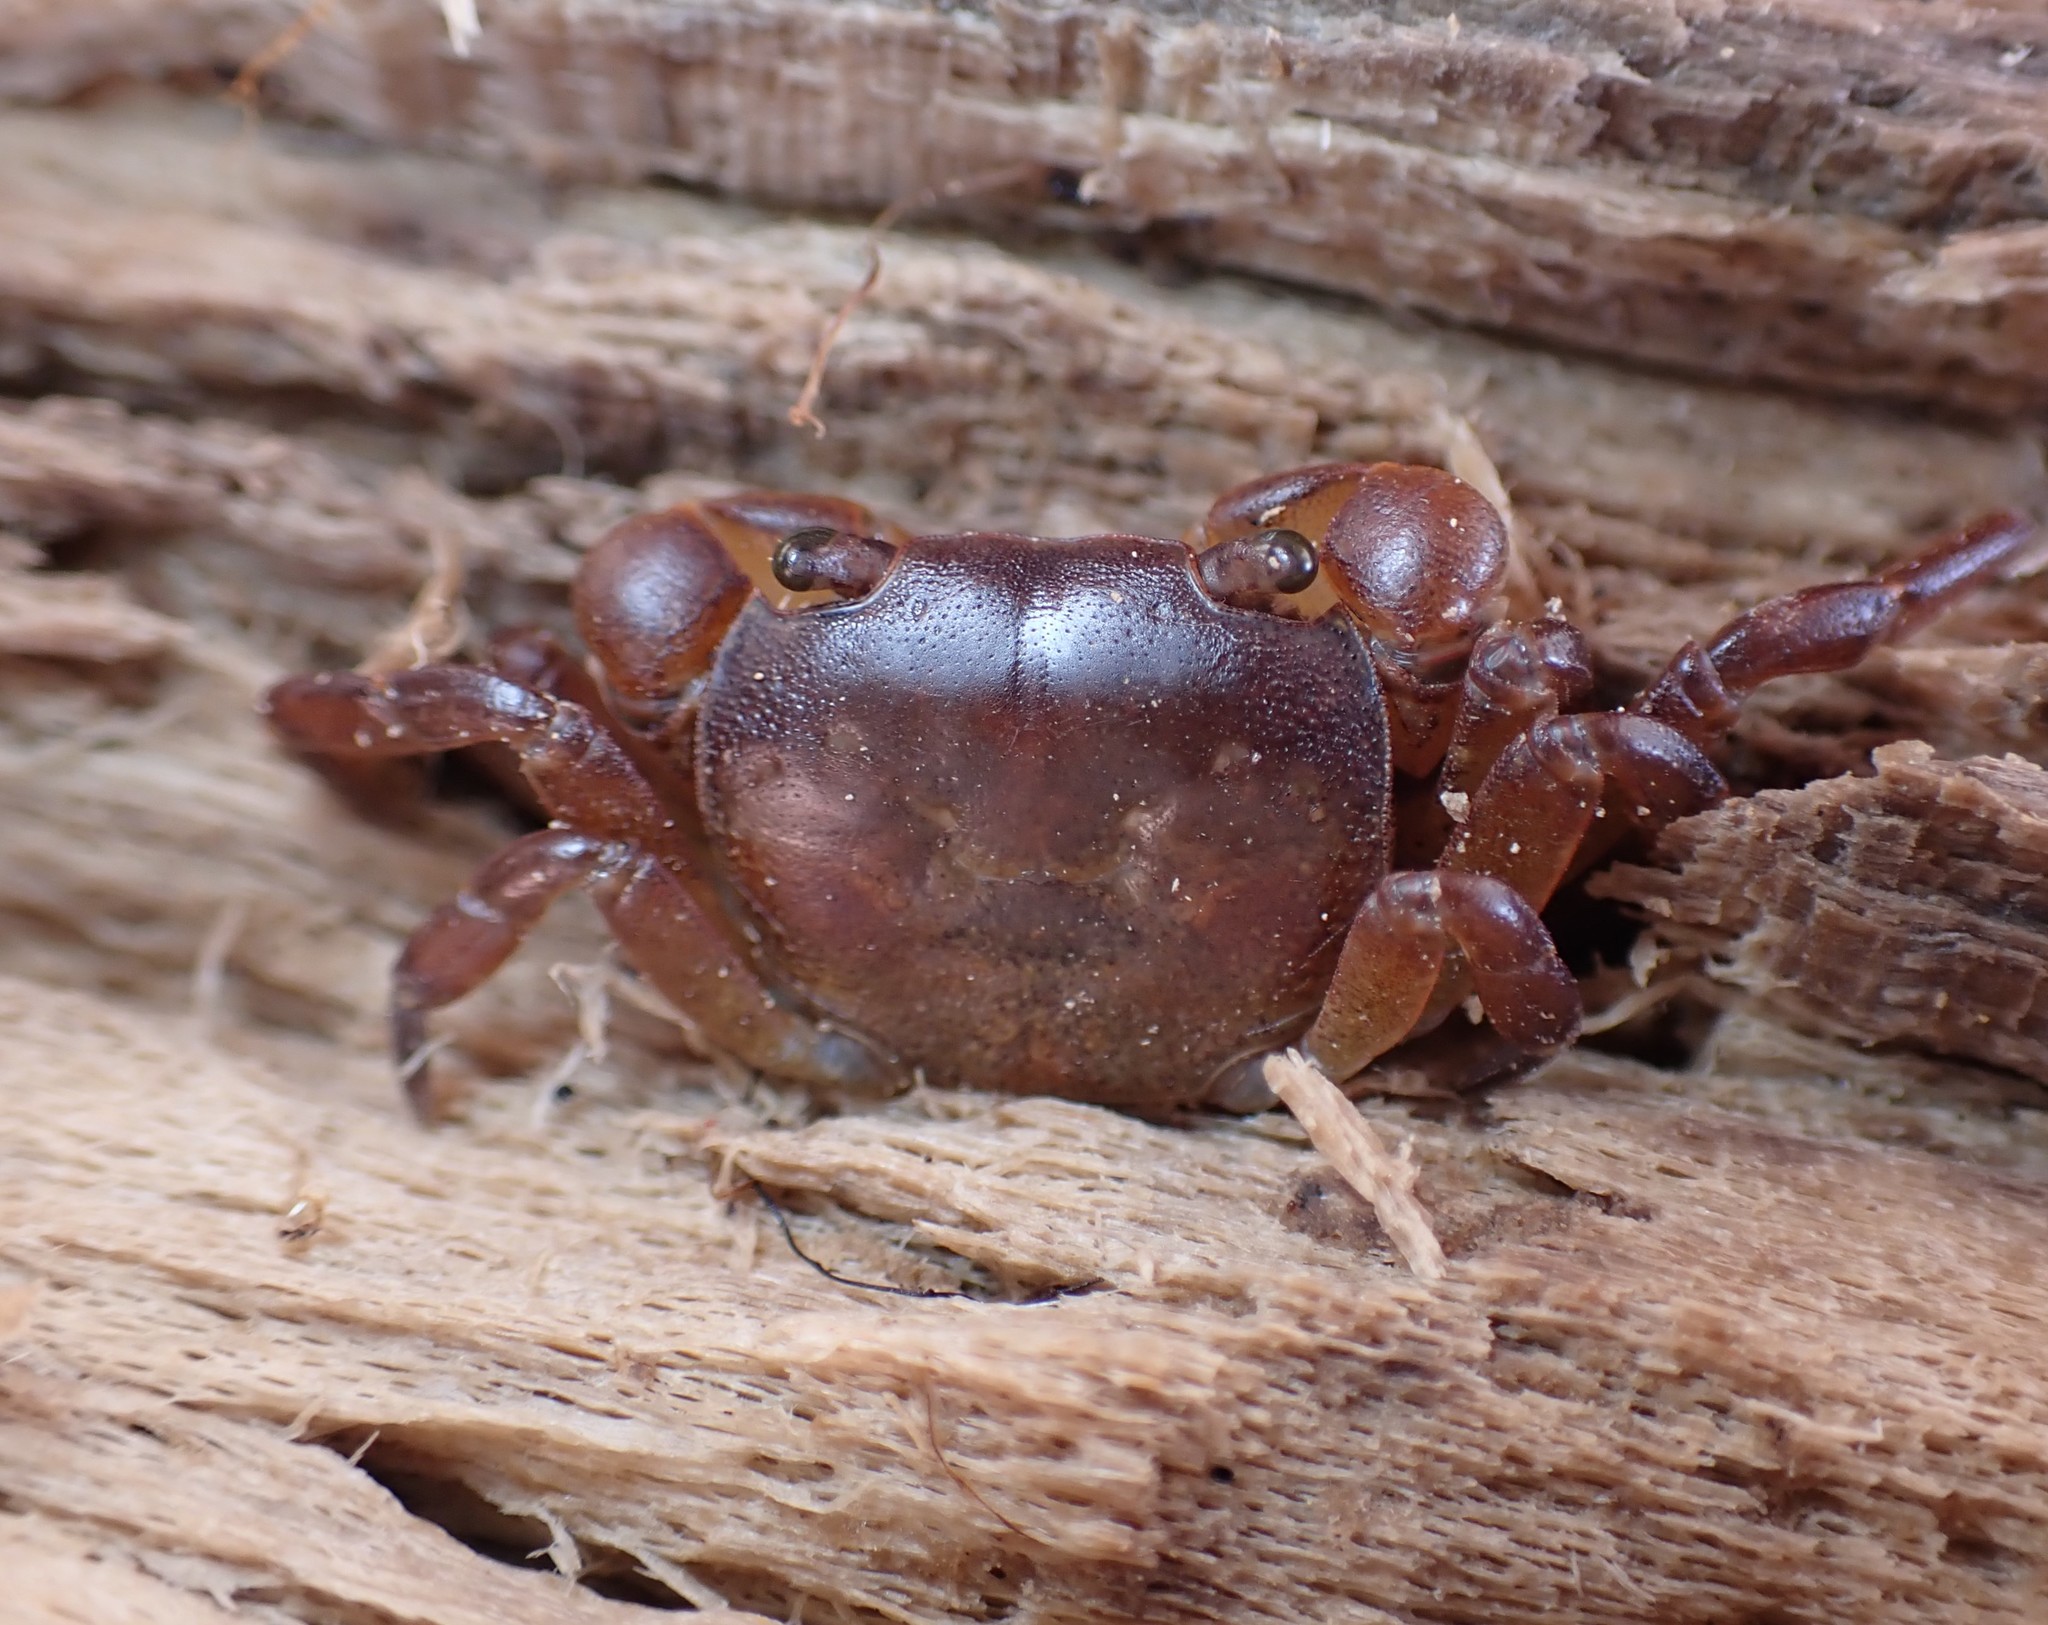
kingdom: Animalia
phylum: Arthropoda
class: Malacostraca
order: Decapoda
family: Varunidae
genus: Cyclograpsus
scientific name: Cyclograpsus lavauxi
